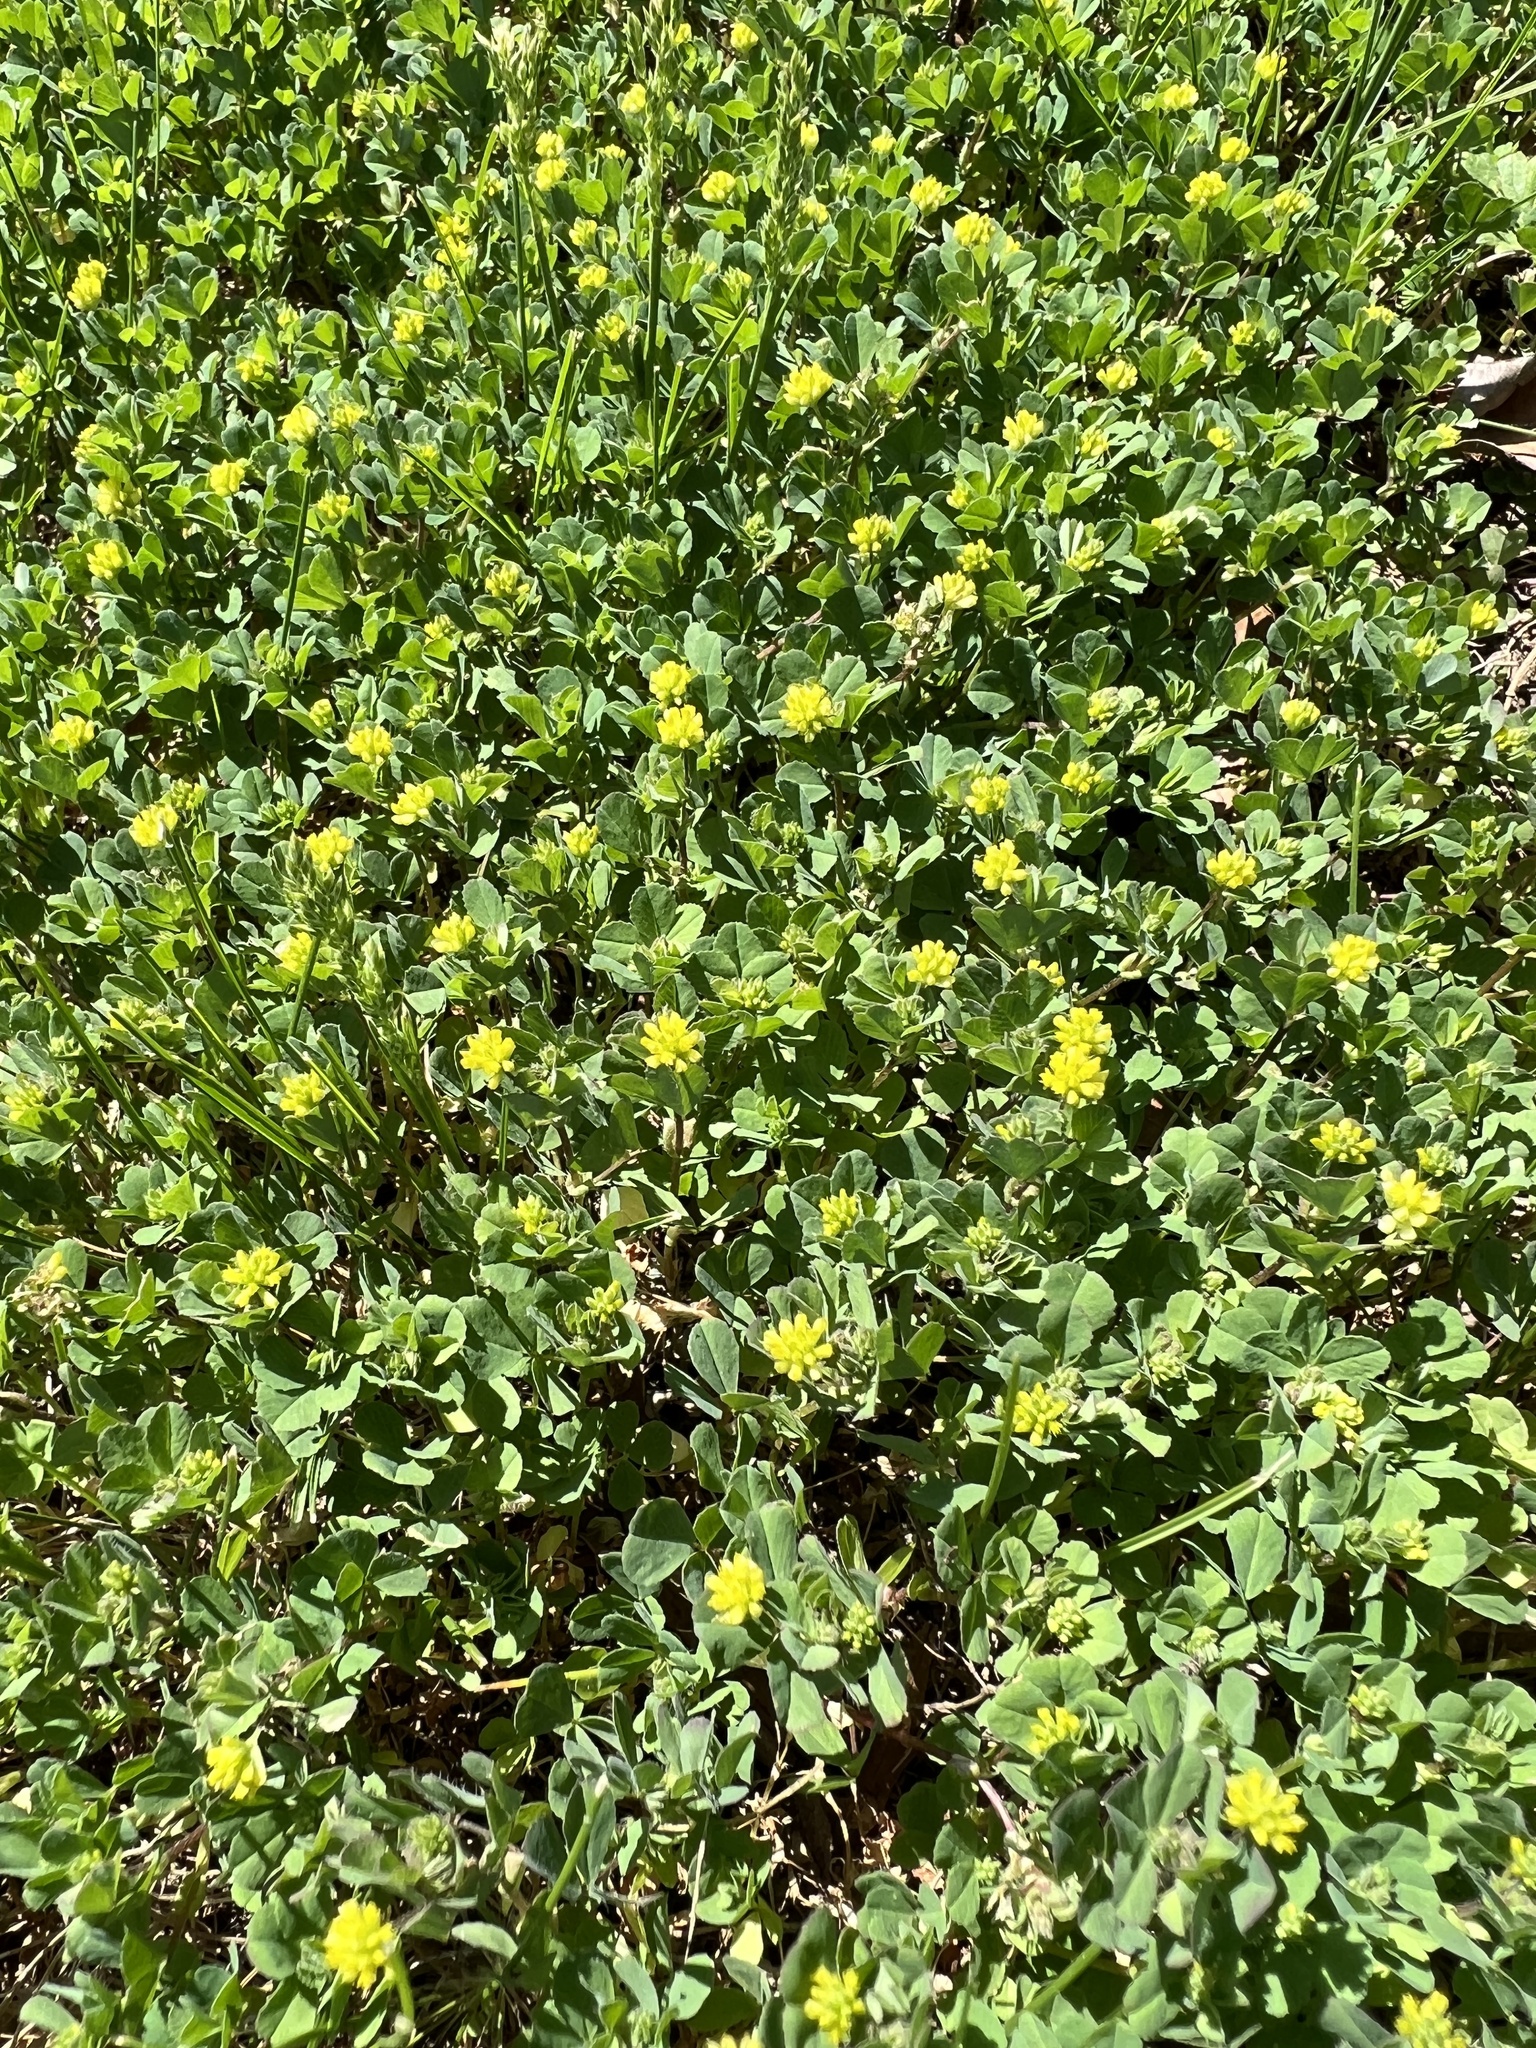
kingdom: Plantae
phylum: Tracheophyta
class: Magnoliopsida
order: Fabales
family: Fabaceae
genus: Trifolium
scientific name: Trifolium dubium
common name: Suckling clover
